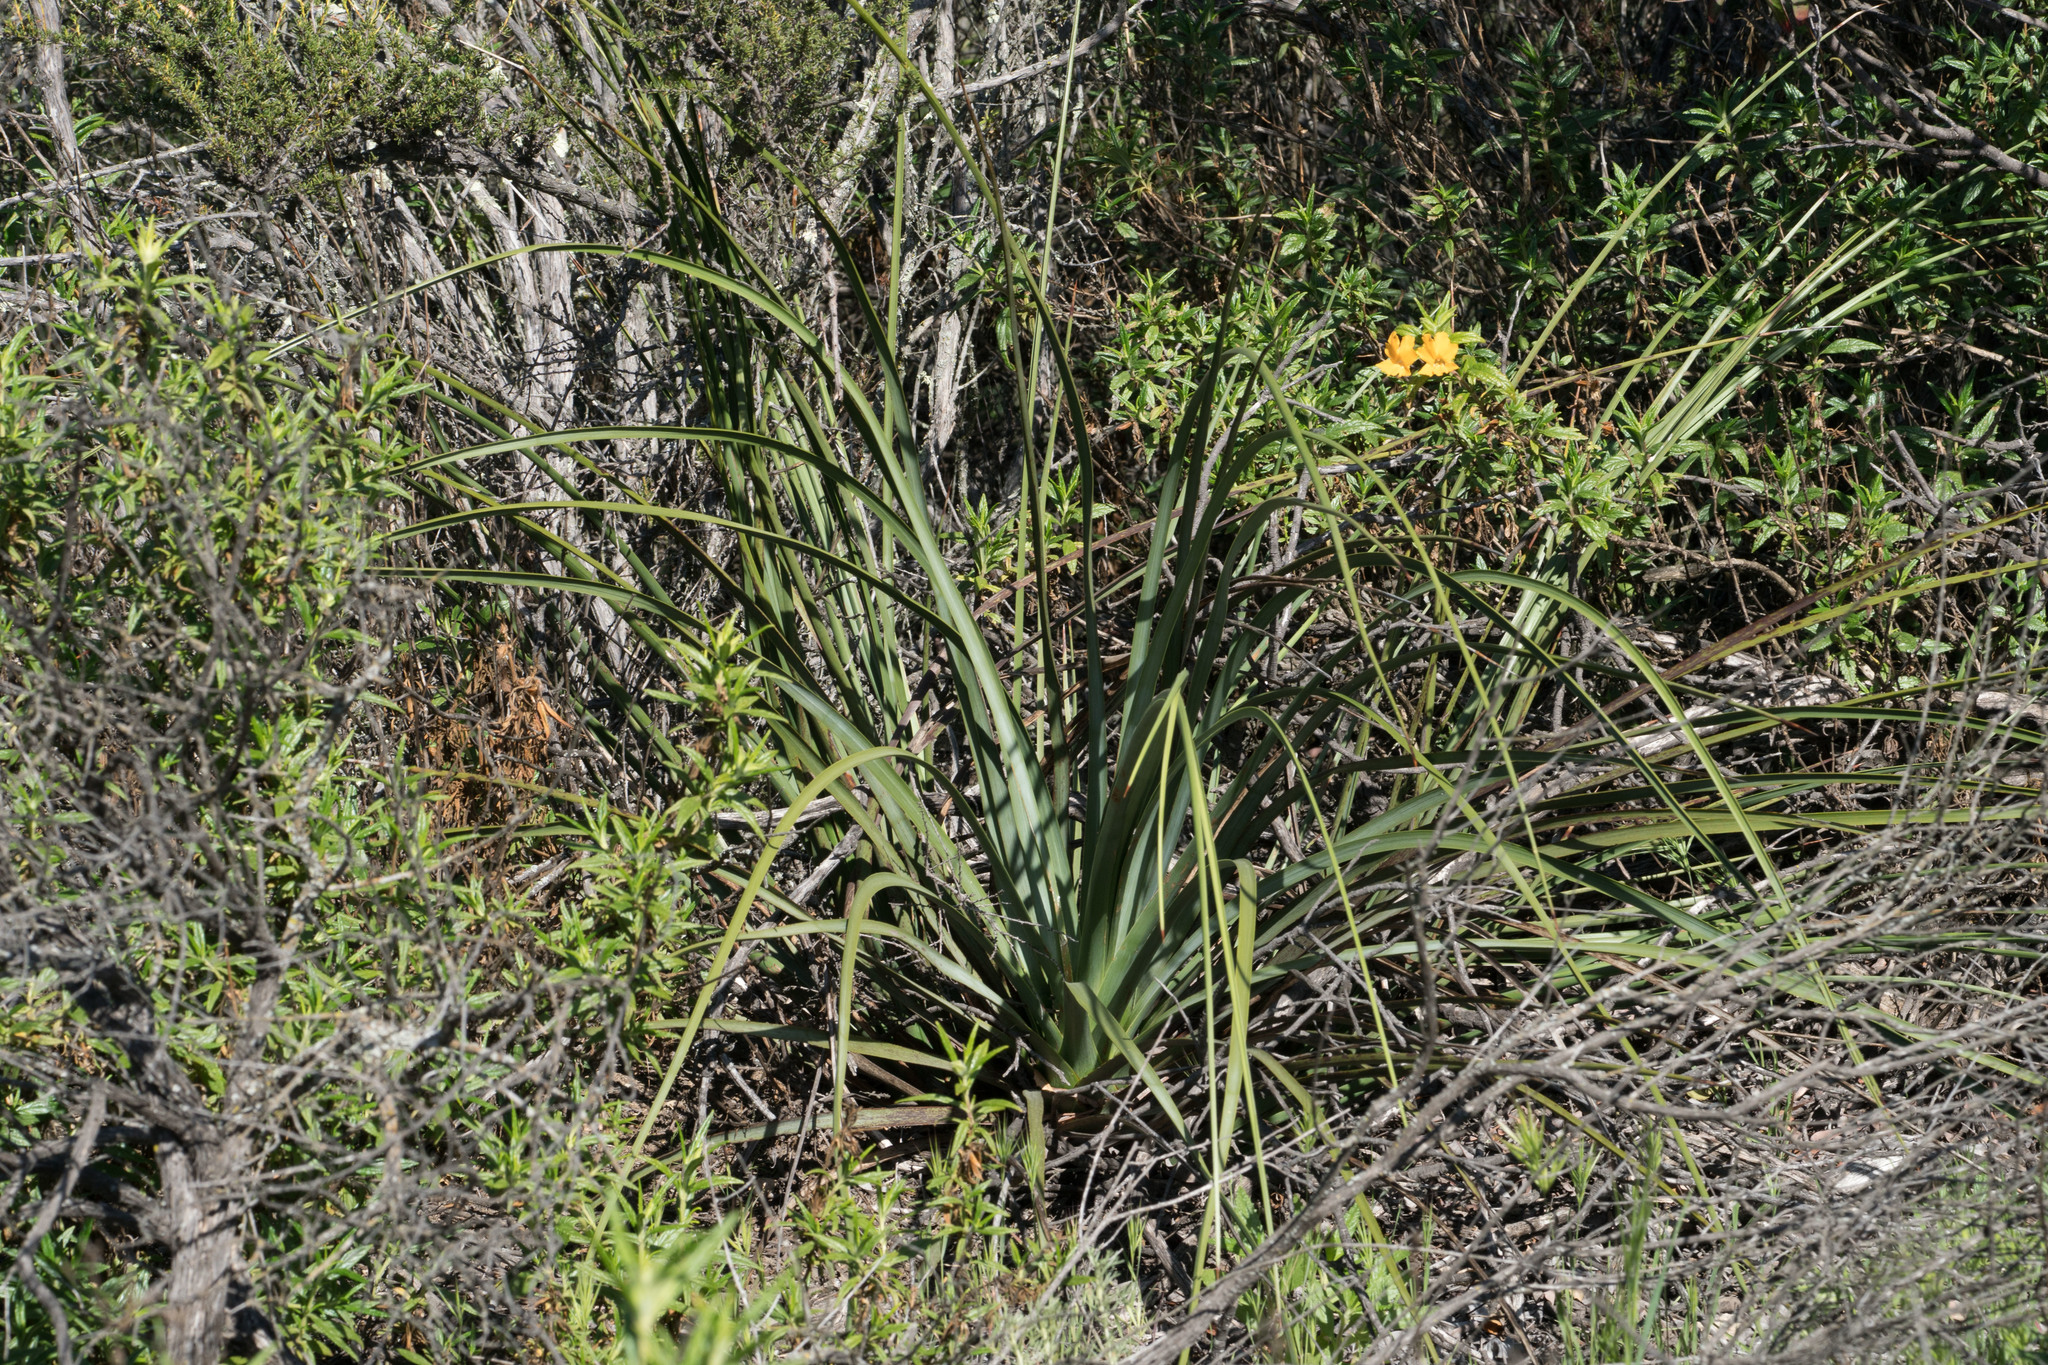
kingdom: Plantae
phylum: Tracheophyta
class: Liliopsida
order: Asparagales
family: Asparagaceae
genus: Hesperoyucca
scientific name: Hesperoyucca whipplei
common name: Our lord's-candle
